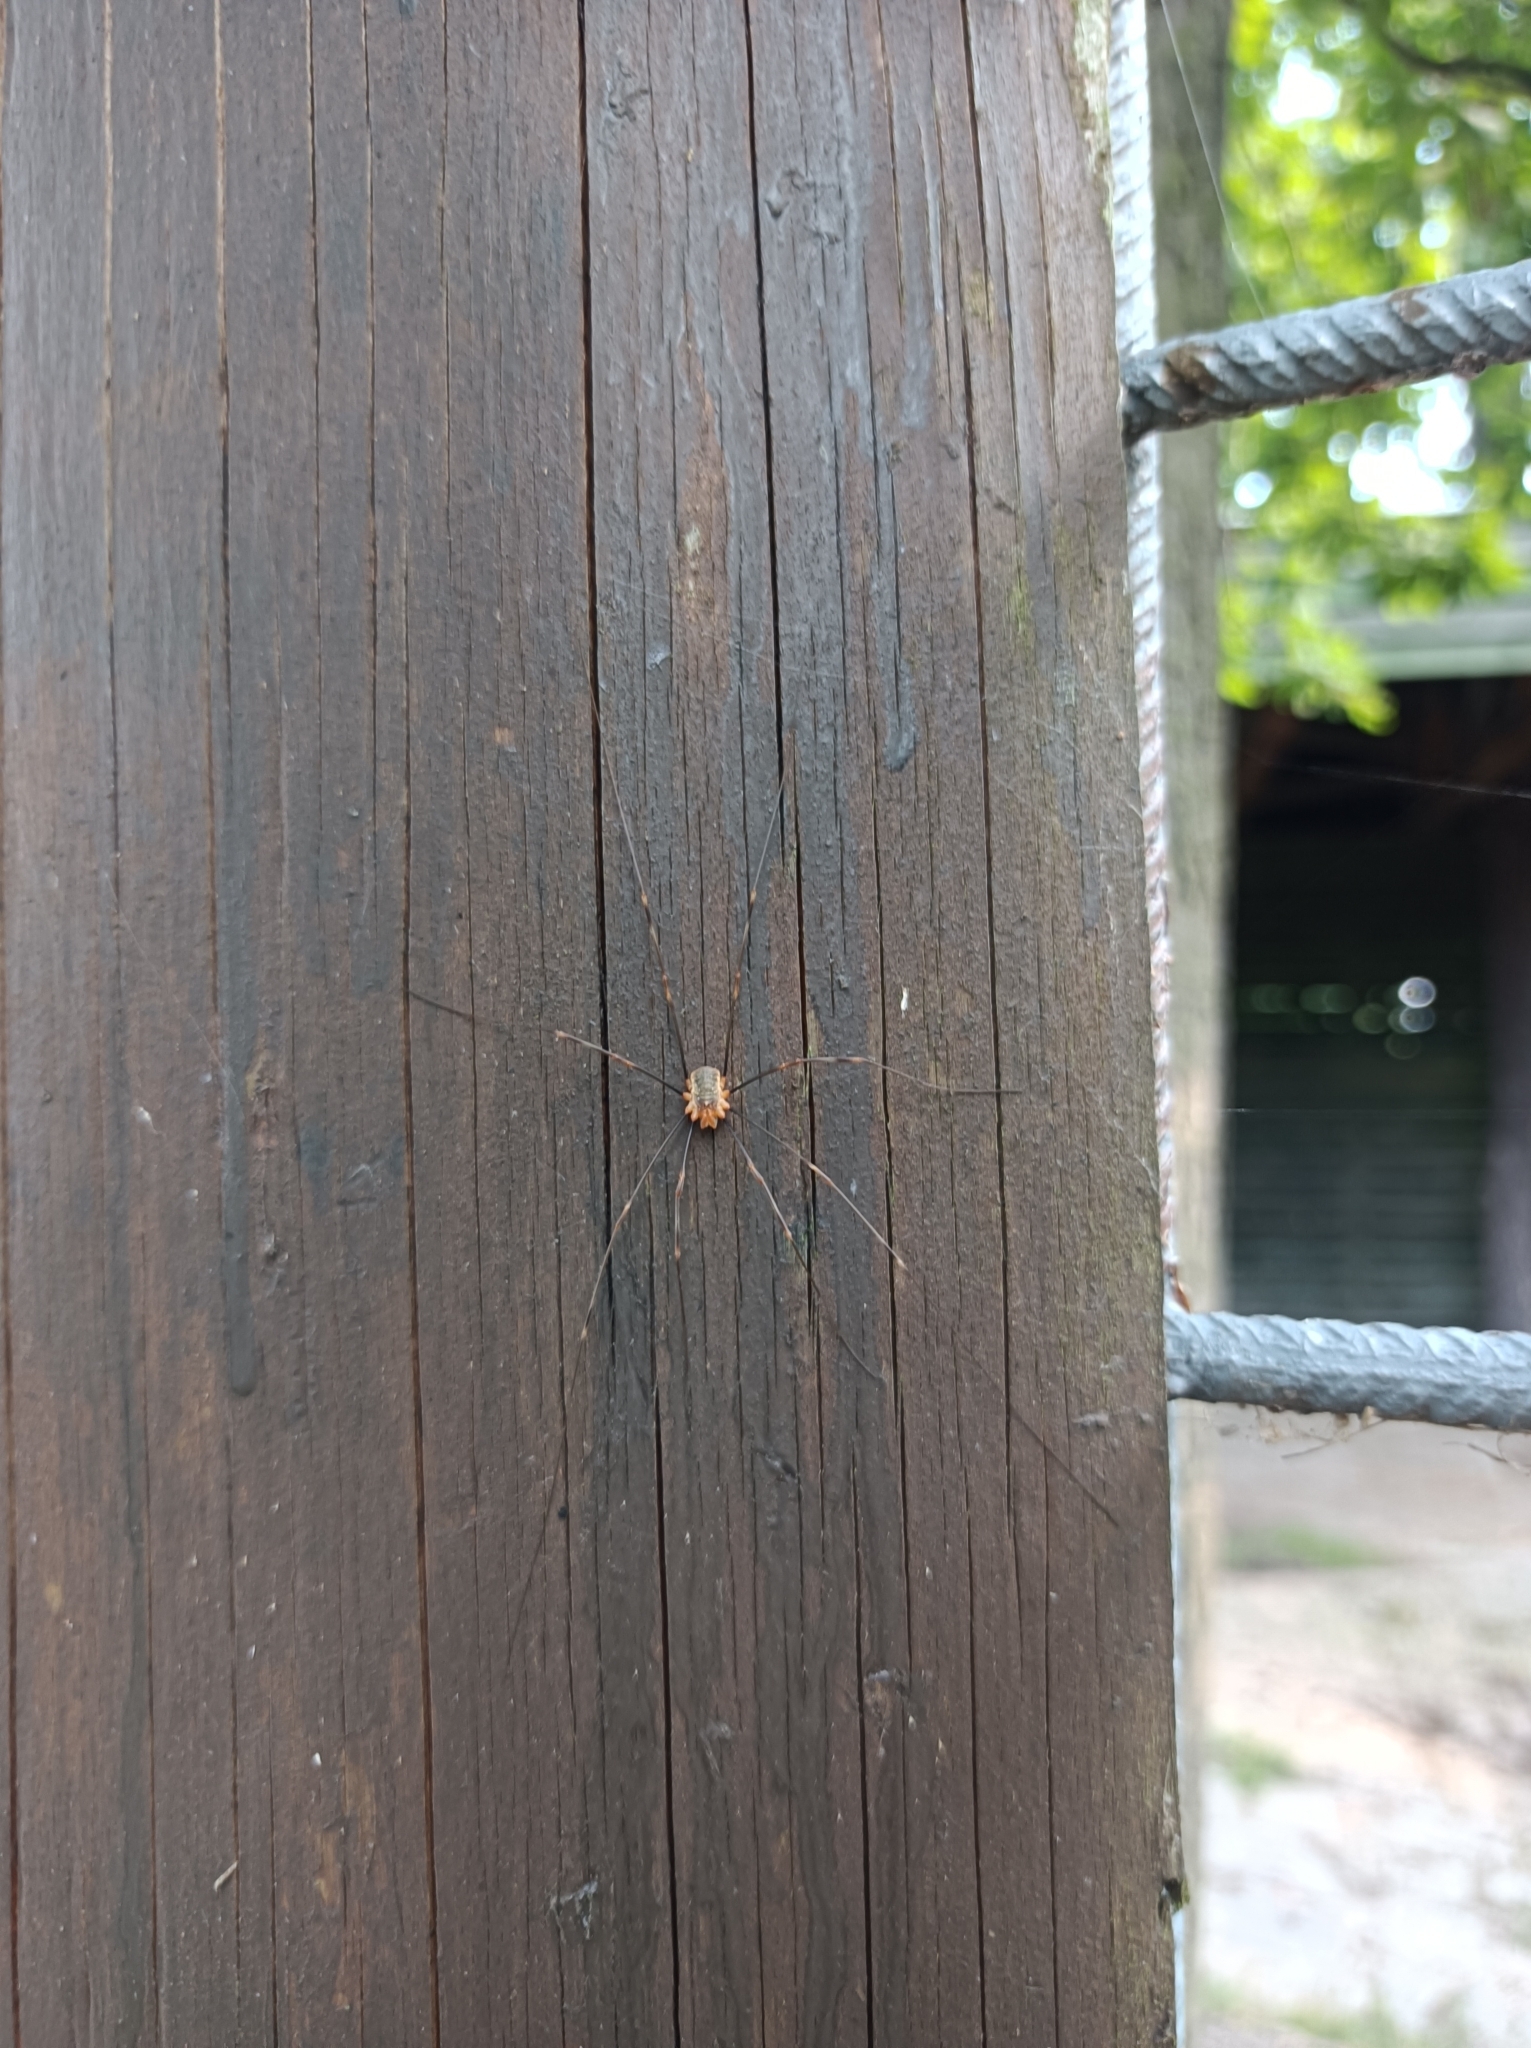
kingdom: Animalia
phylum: Arthropoda
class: Arachnida
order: Opiliones
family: Phalangiidae
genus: Opilio
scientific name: Opilio canestrinii
